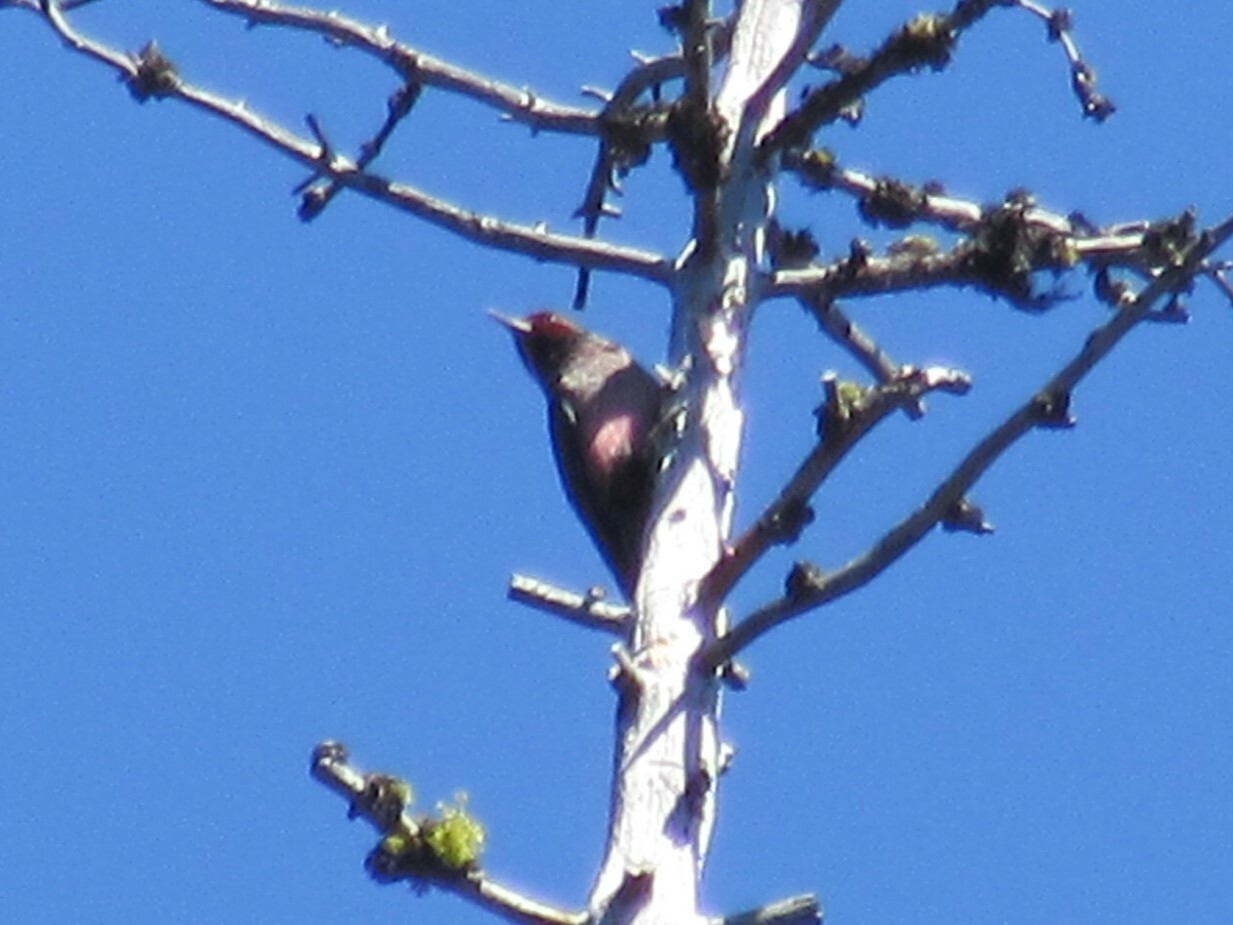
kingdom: Animalia
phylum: Chordata
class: Aves
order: Piciformes
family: Picidae
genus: Melanerpes
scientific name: Melanerpes lewis
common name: Lewis's woodpecker
